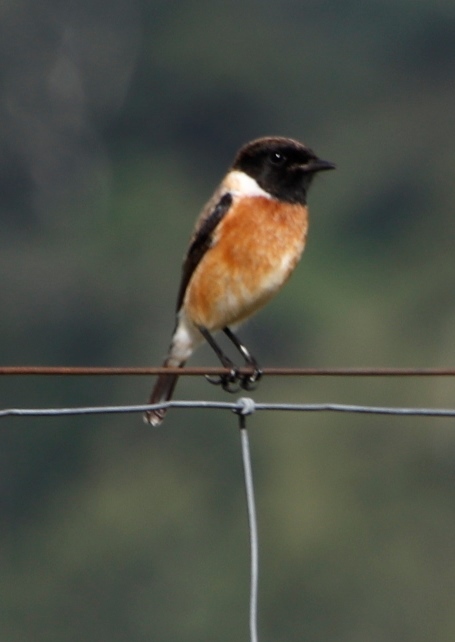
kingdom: Animalia
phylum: Chordata
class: Aves
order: Passeriformes
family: Muscicapidae
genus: Saxicola
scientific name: Saxicola torquatus
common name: African stonechat
